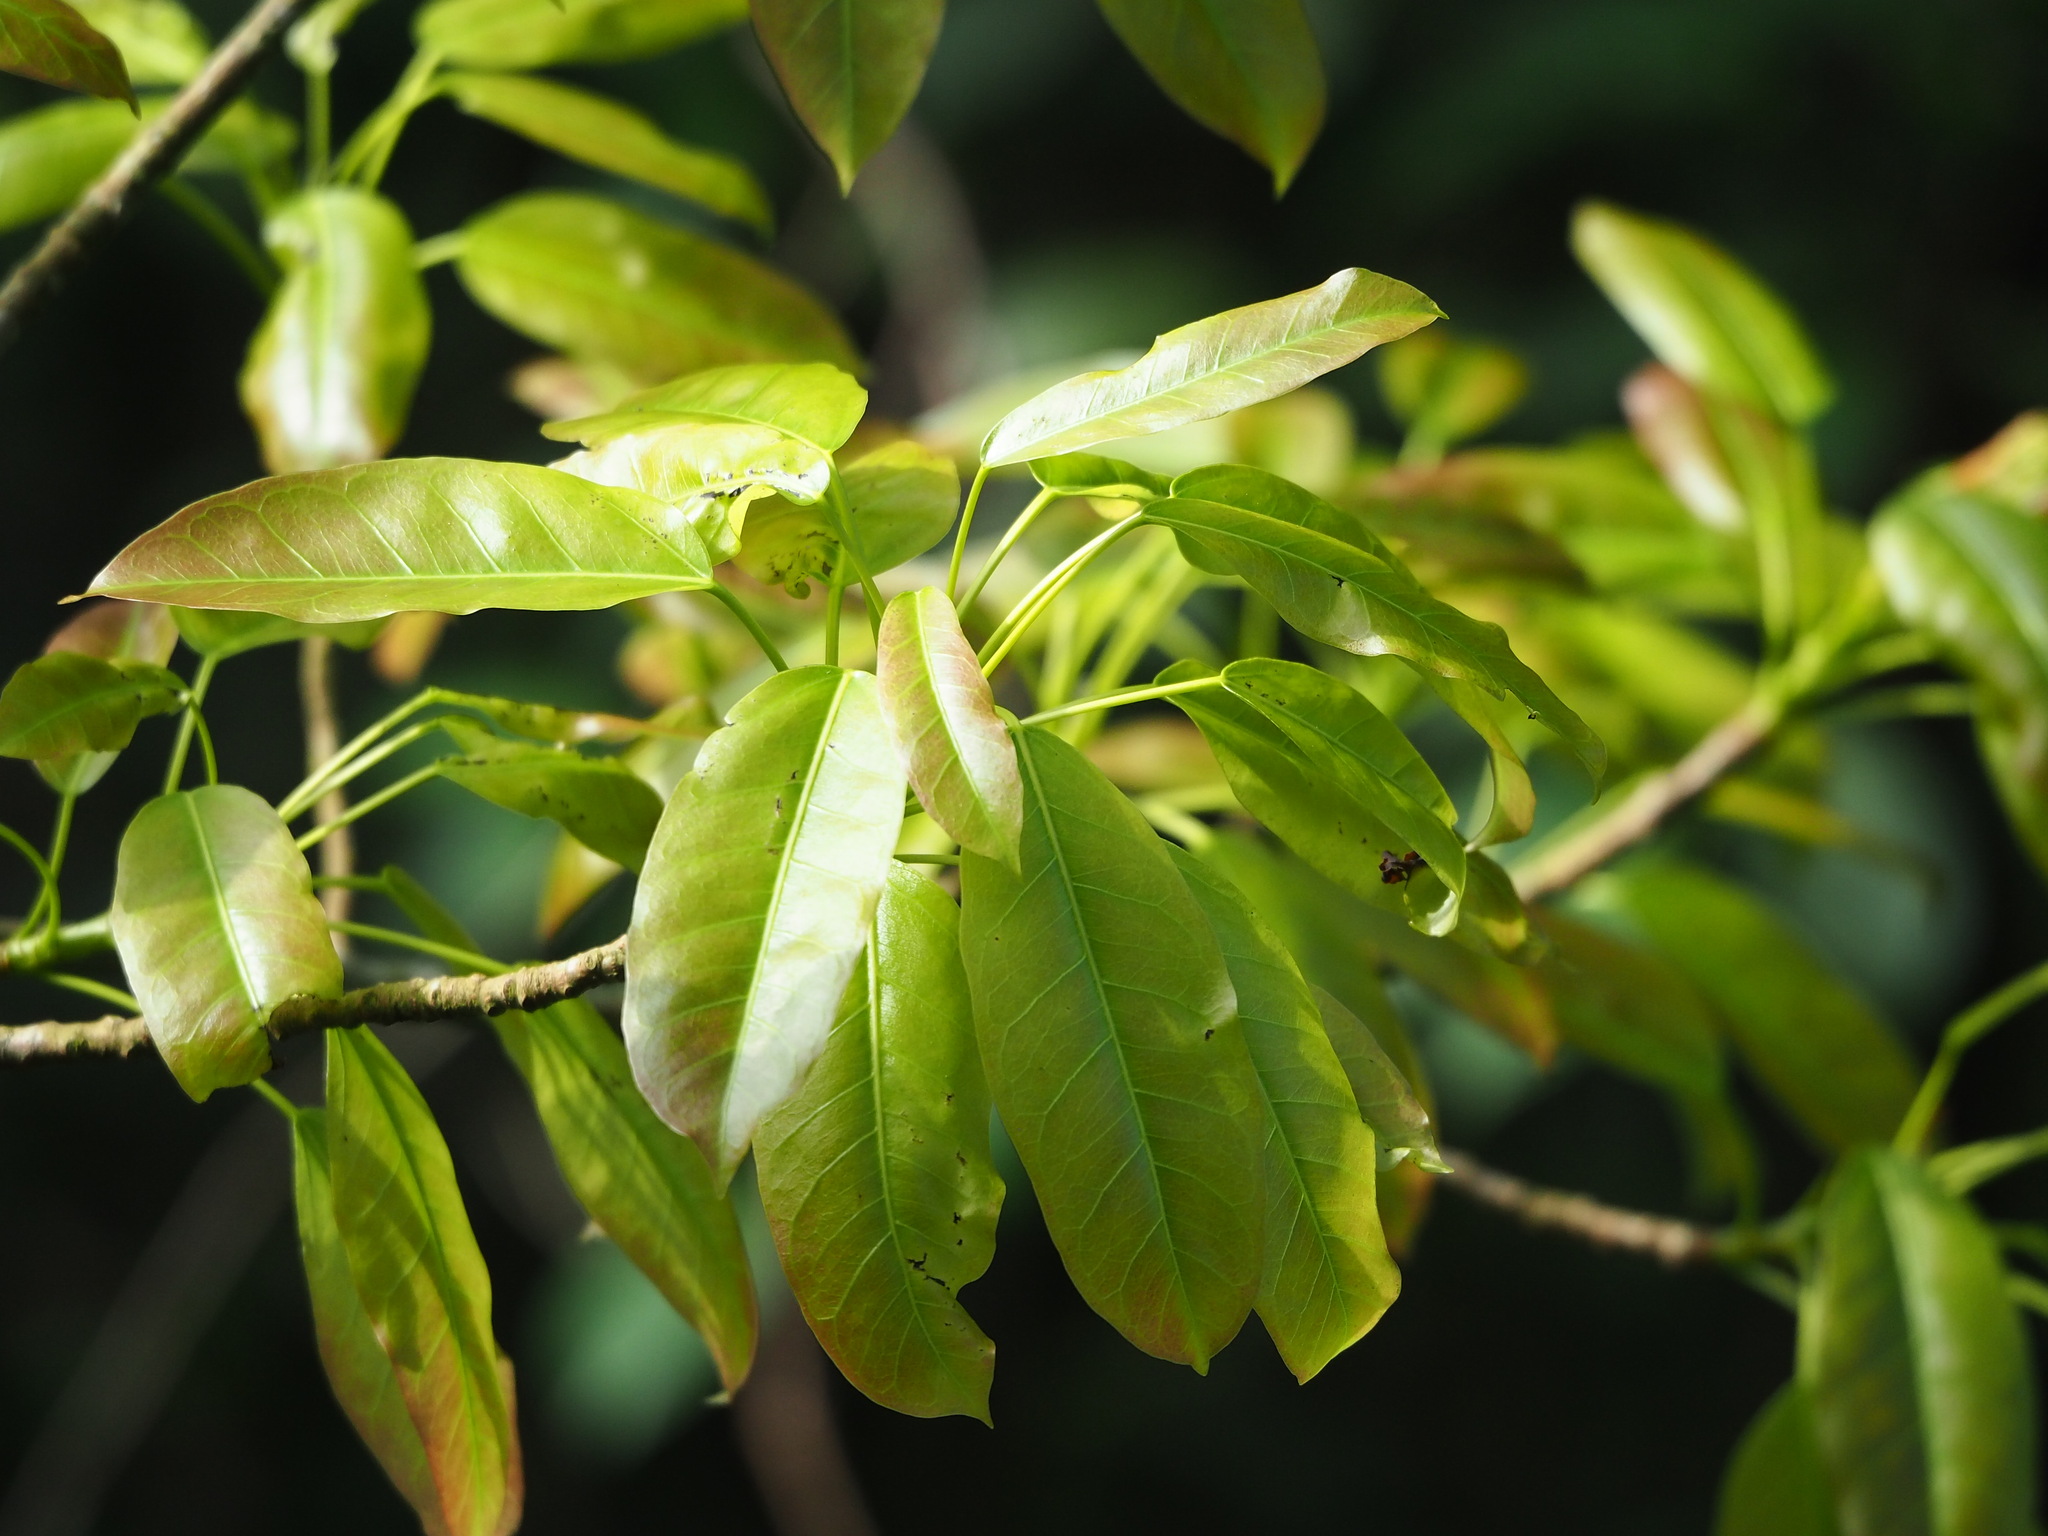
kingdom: Plantae
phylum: Tracheophyta
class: Magnoliopsida
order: Rosales
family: Moraceae
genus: Ficus
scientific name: Ficus subpisocarpa
